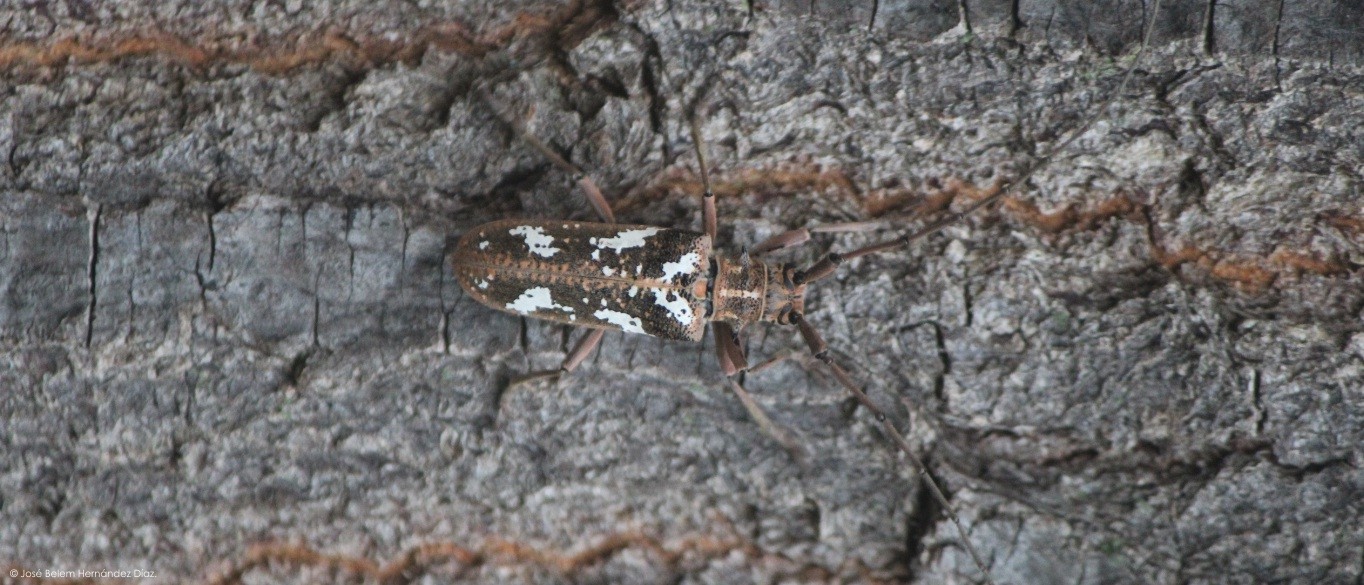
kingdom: Animalia
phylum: Arthropoda
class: Insecta
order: Coleoptera
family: Cerambycidae
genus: Plagiohammus
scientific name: Plagiohammus laceratus
